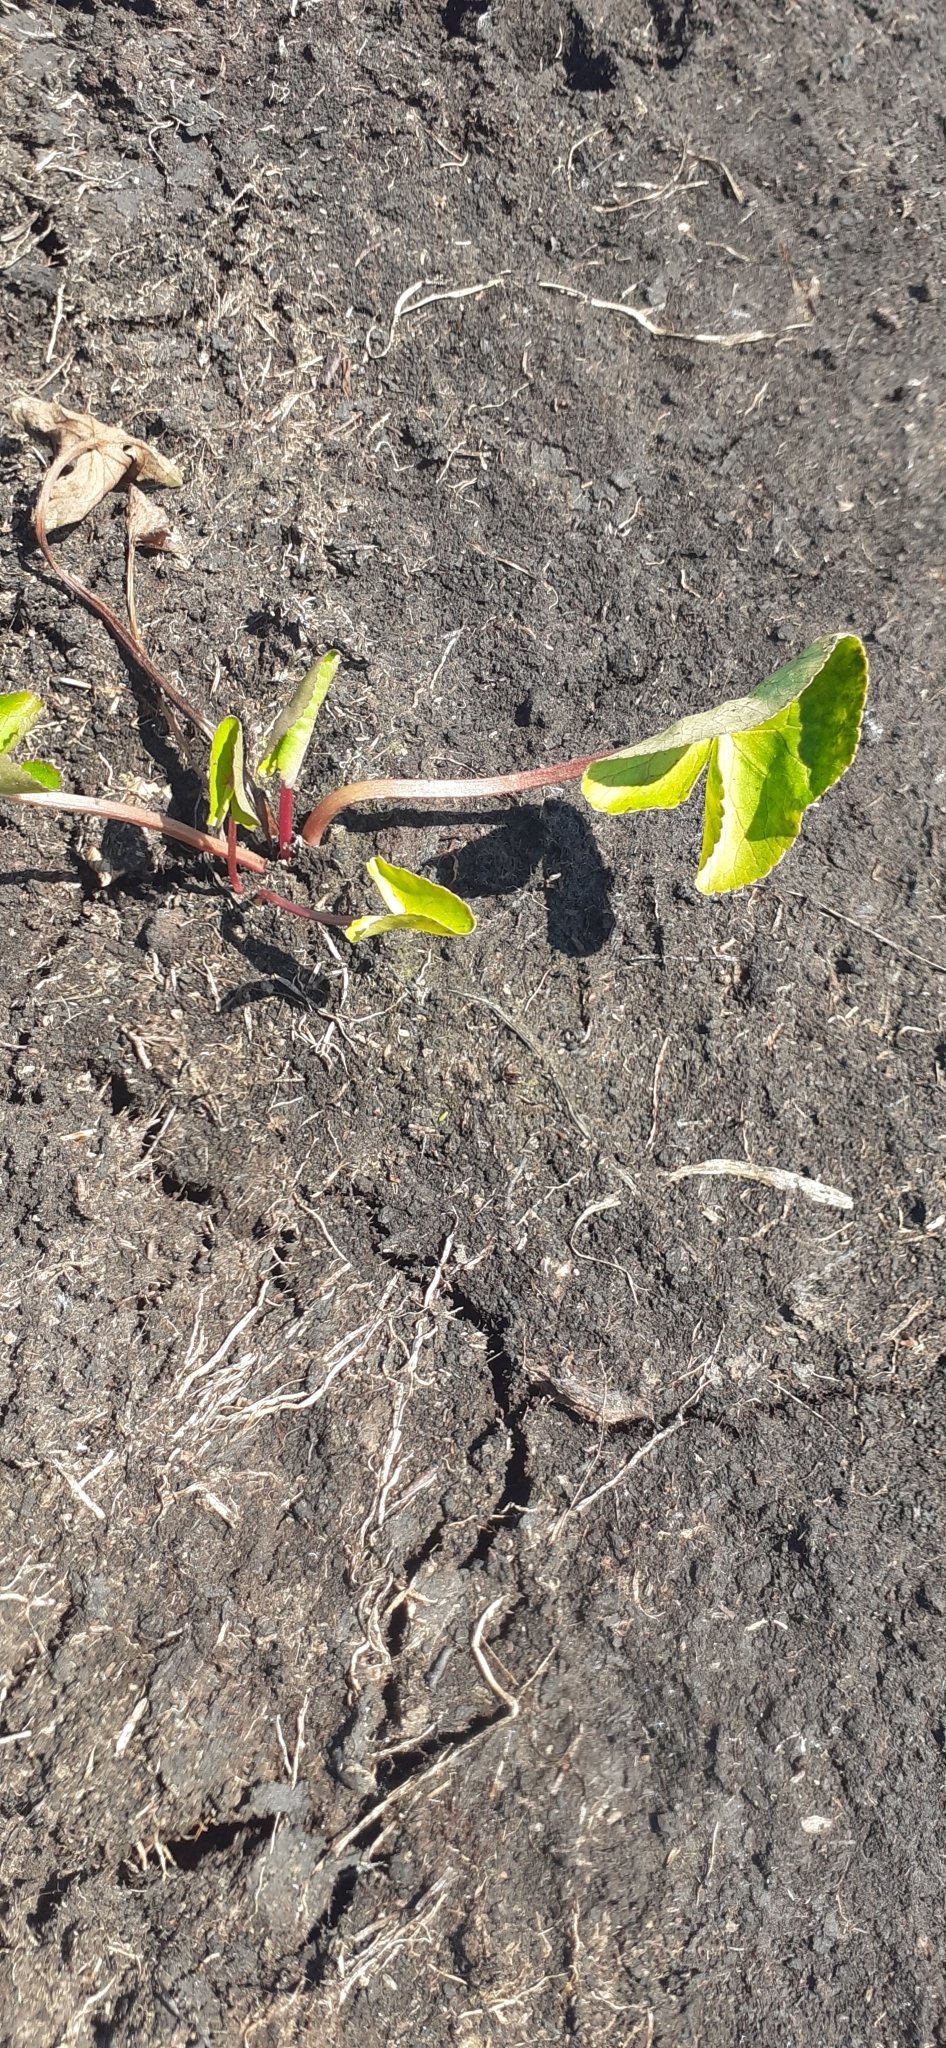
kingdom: Plantae
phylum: Tracheophyta
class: Magnoliopsida
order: Ranunculales
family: Ranunculaceae
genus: Caltha
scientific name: Caltha palustris
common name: Marsh marigold
